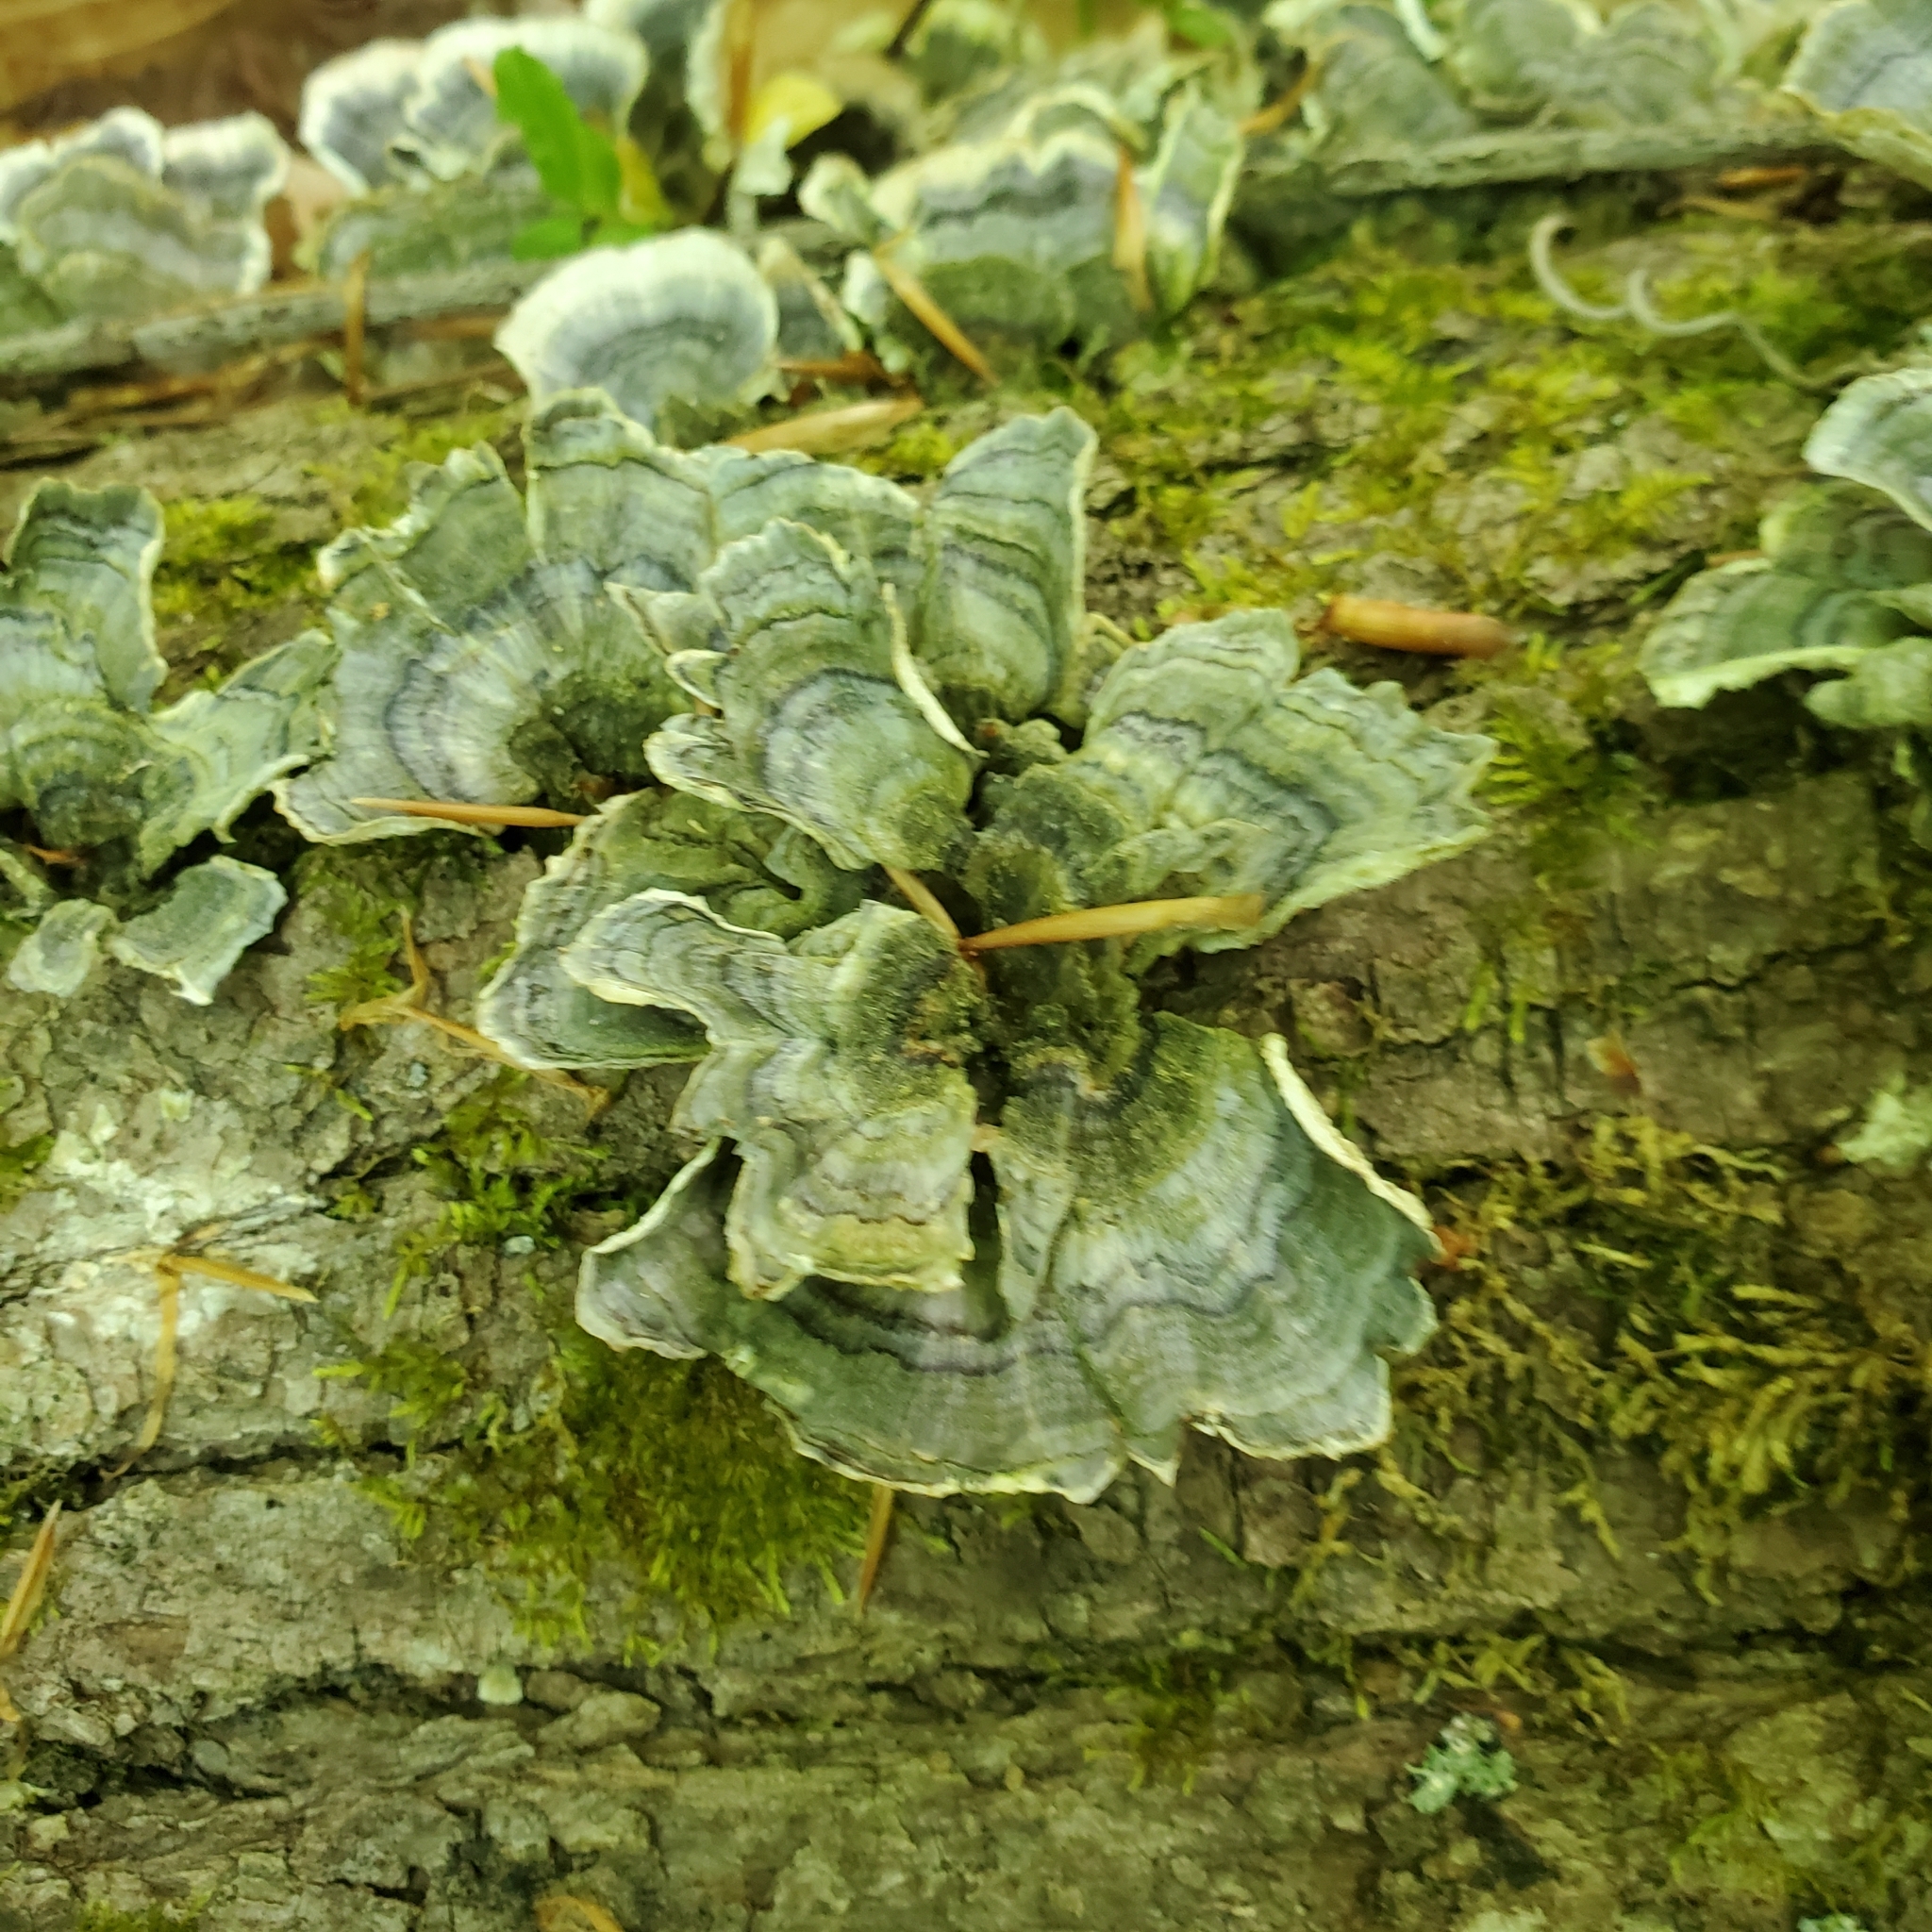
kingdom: Fungi
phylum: Basidiomycota
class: Agaricomycetes
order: Polyporales
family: Polyporaceae
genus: Trametes
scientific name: Trametes versicolor
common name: Turkeytail
